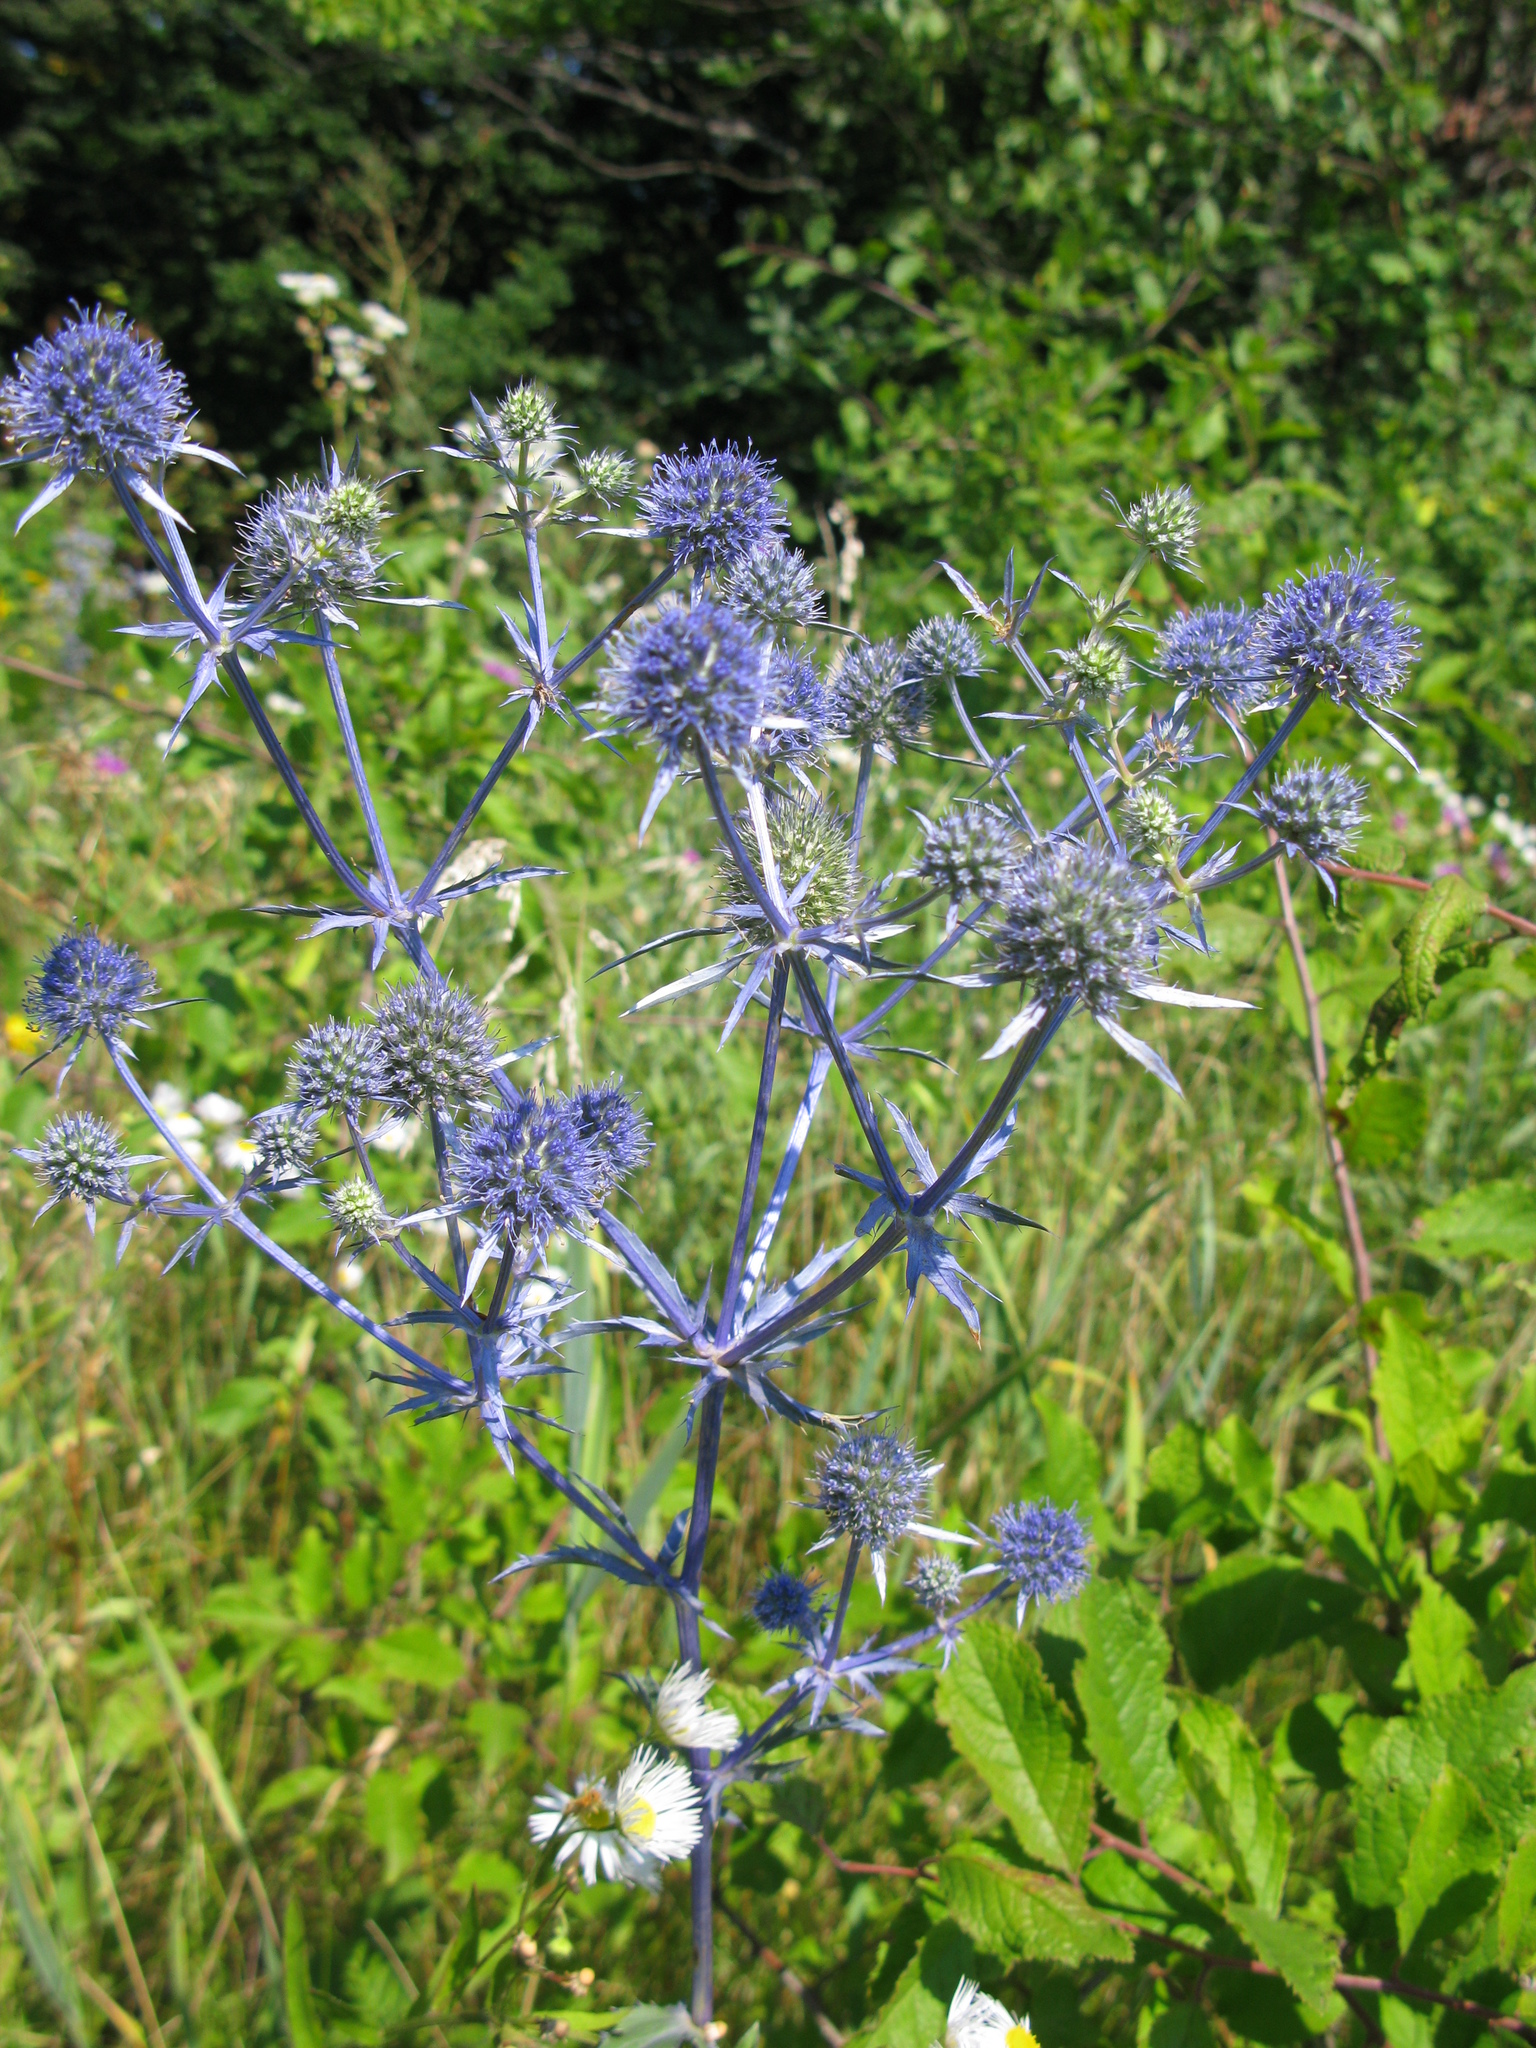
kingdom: Plantae
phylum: Tracheophyta
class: Magnoliopsida
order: Apiales
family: Apiaceae
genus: Eryngium
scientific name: Eryngium planum
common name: Blue eryngo
